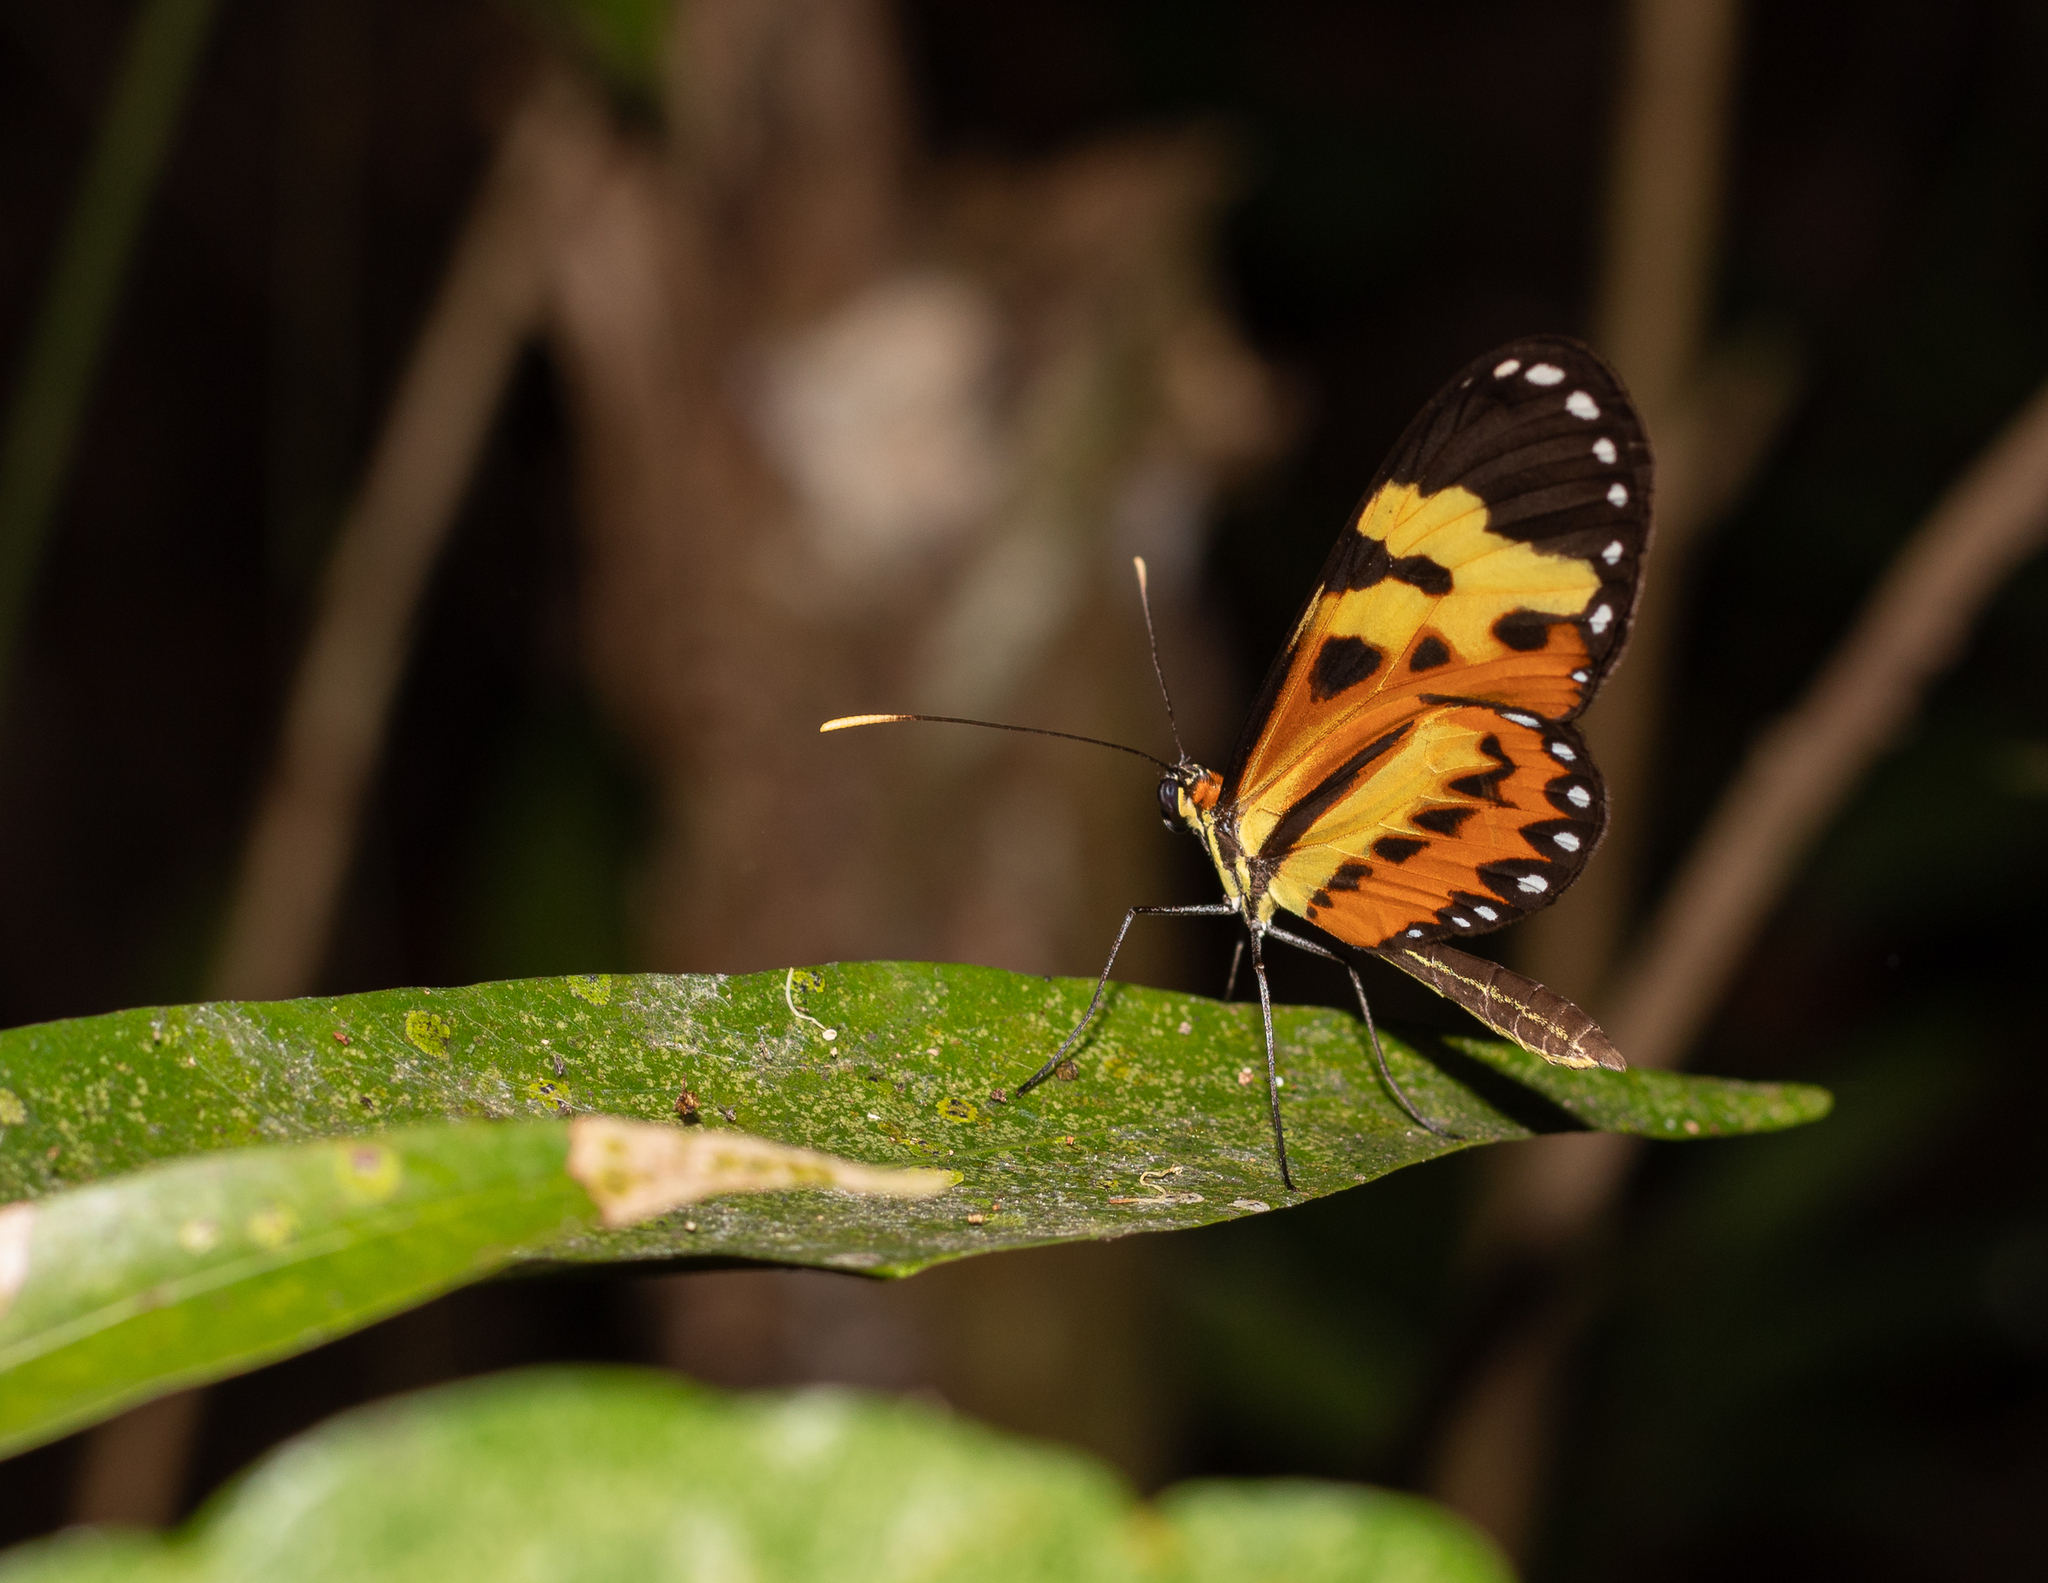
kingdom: Animalia
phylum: Arthropoda
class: Insecta
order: Lepidoptera
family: Nymphalidae
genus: Mechanitis
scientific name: Mechanitis polymnia
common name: Disturbed tigerwing
